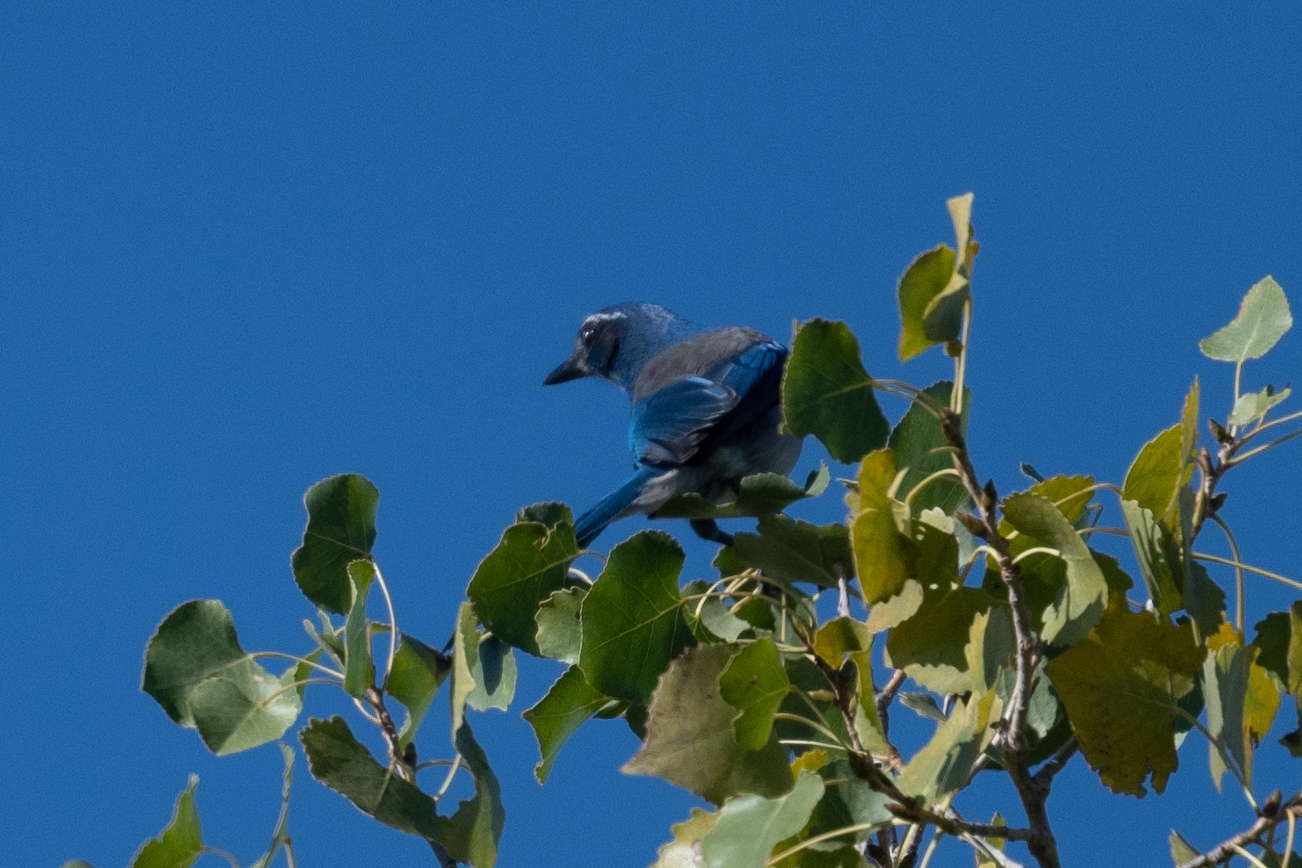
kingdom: Animalia
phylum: Chordata
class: Aves
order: Passeriformes
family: Corvidae
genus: Aphelocoma
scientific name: Aphelocoma californica
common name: California scrub-jay
